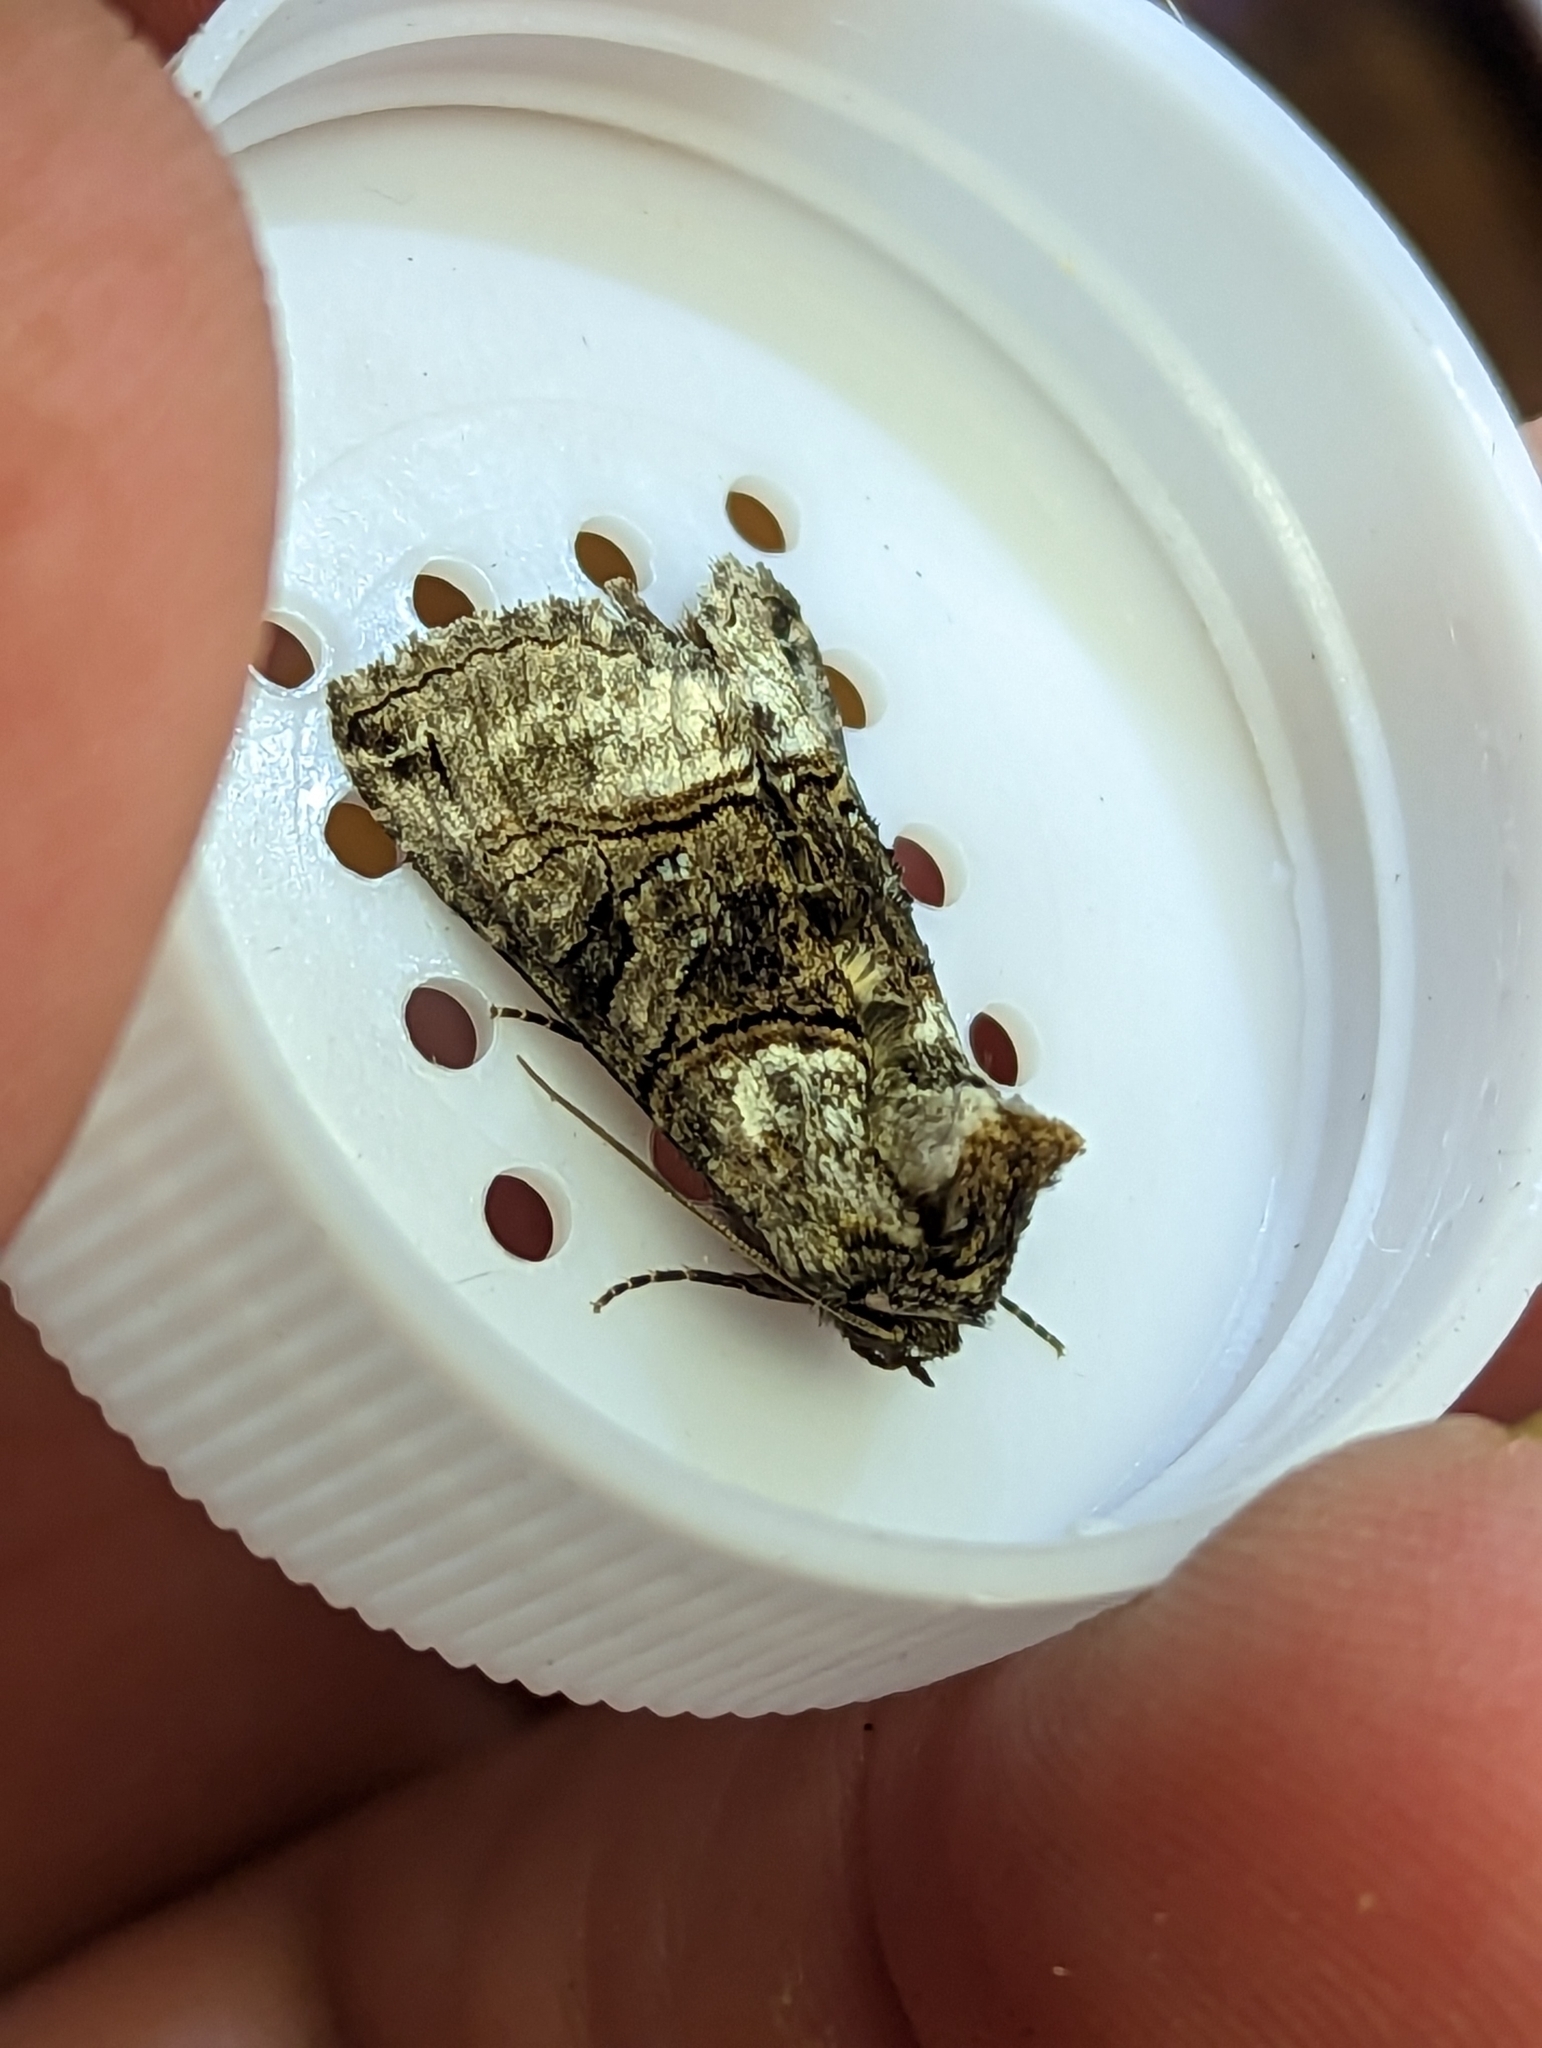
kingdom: Animalia
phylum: Arthropoda
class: Insecta
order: Lepidoptera
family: Noctuidae
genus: Abrostola
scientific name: Abrostola tripartita
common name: Spectacle
